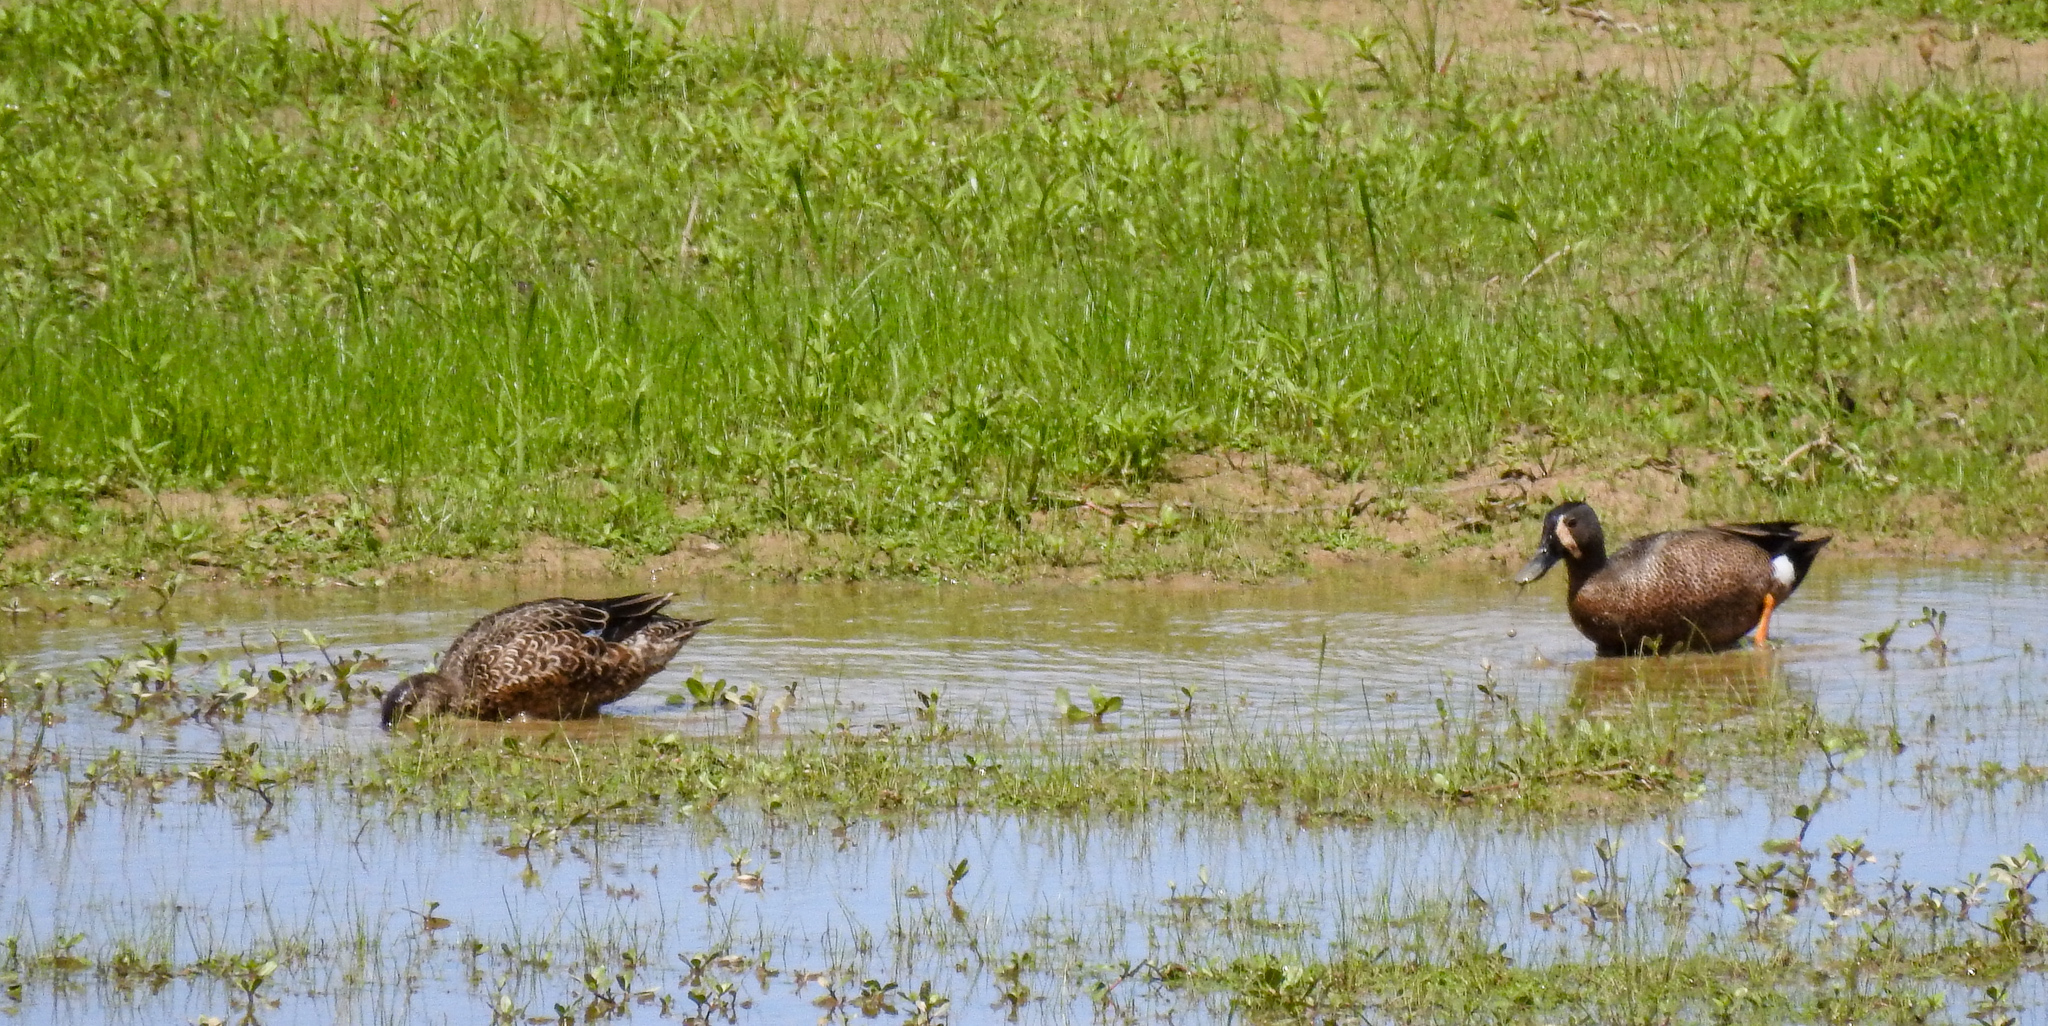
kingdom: Animalia
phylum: Chordata
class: Aves
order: Anseriformes
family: Anatidae
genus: Spatula
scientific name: Spatula discors
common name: Blue-winged teal
